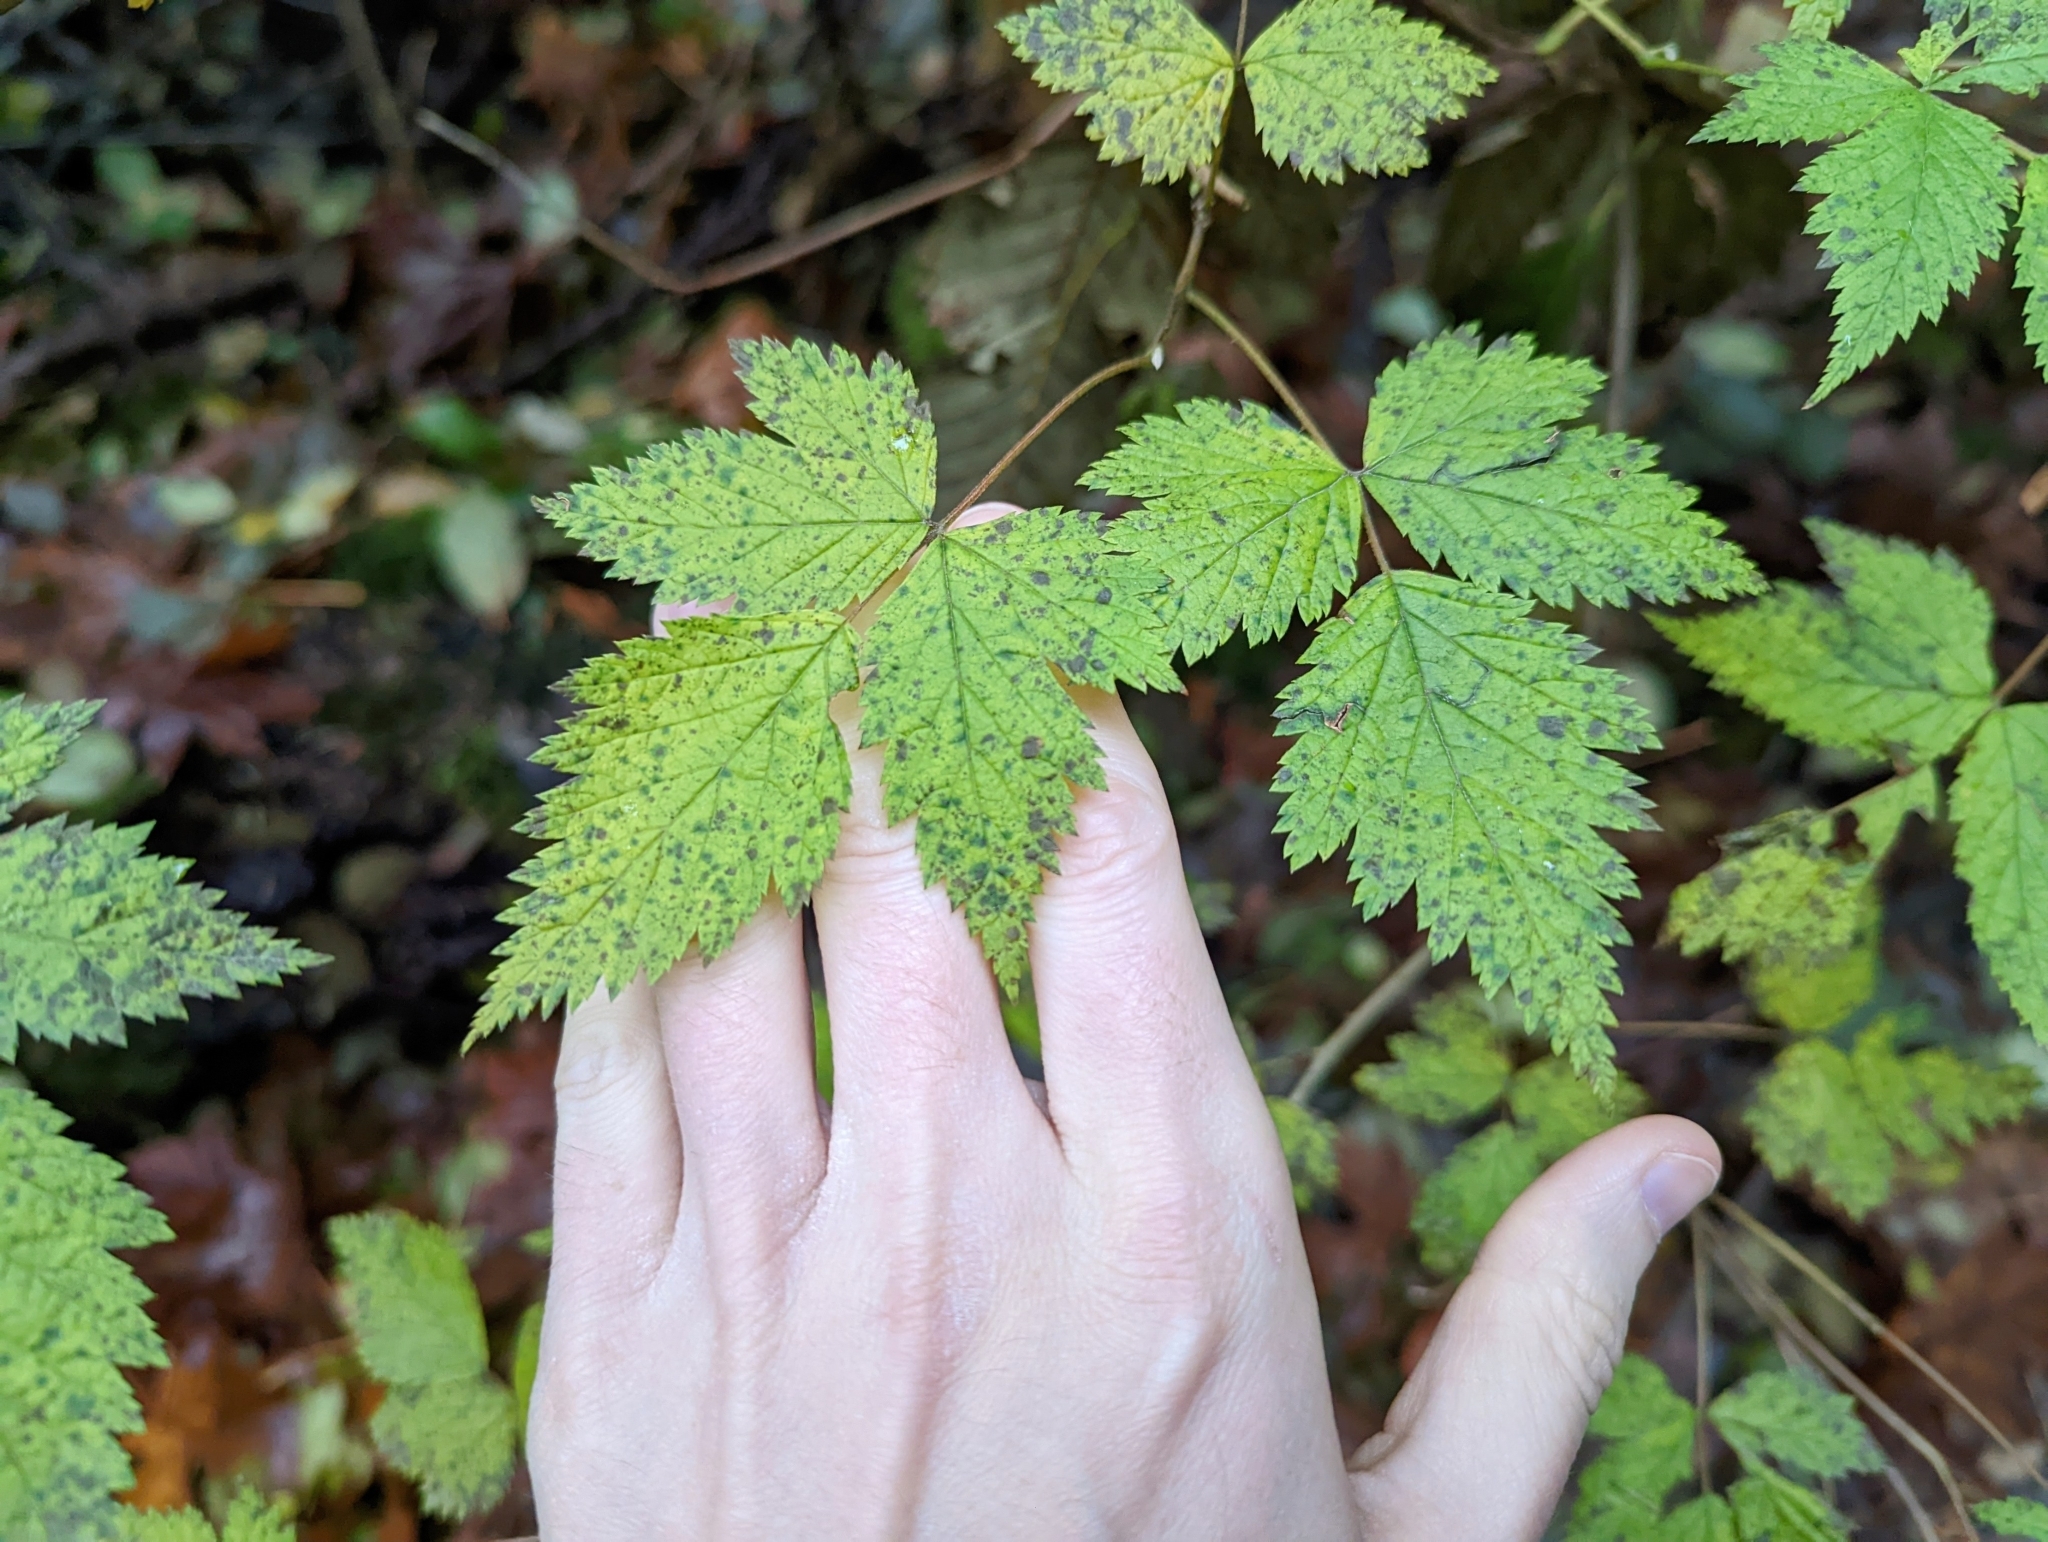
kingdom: Plantae
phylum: Tracheophyta
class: Magnoliopsida
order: Rosales
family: Rosaceae
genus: Rubus
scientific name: Rubus spectabilis
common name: Salmonberry
